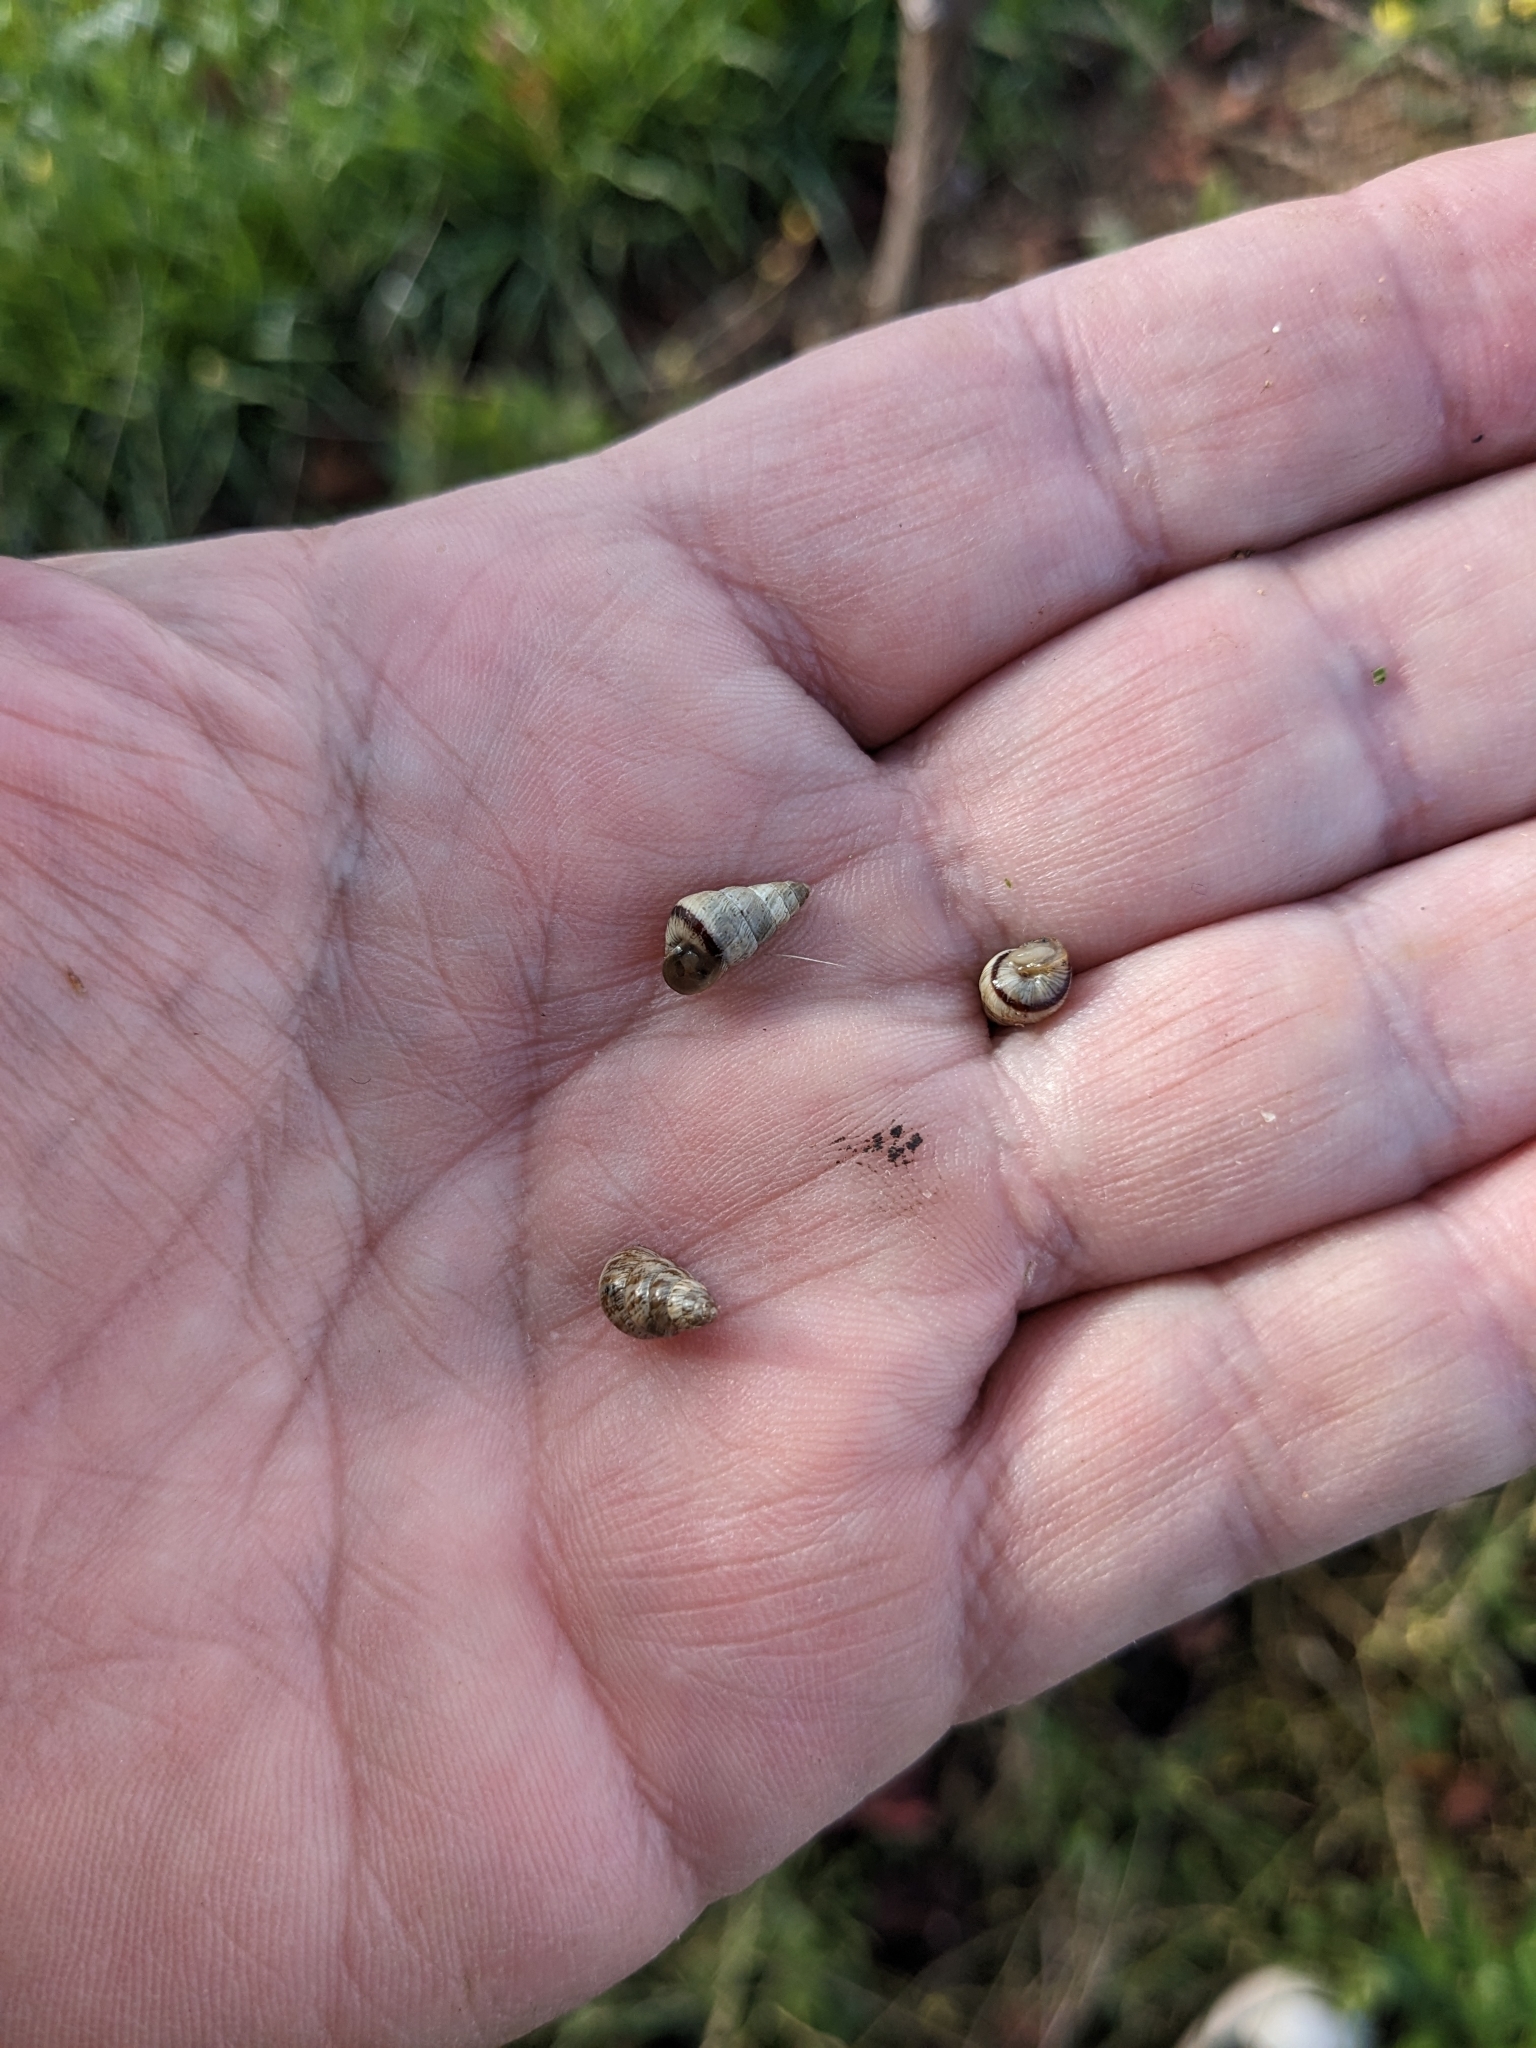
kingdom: Animalia
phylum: Mollusca
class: Gastropoda
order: Stylommatophora
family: Geomitridae
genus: Cochlicella
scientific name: Cochlicella barbara
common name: Potbellied helicellid
